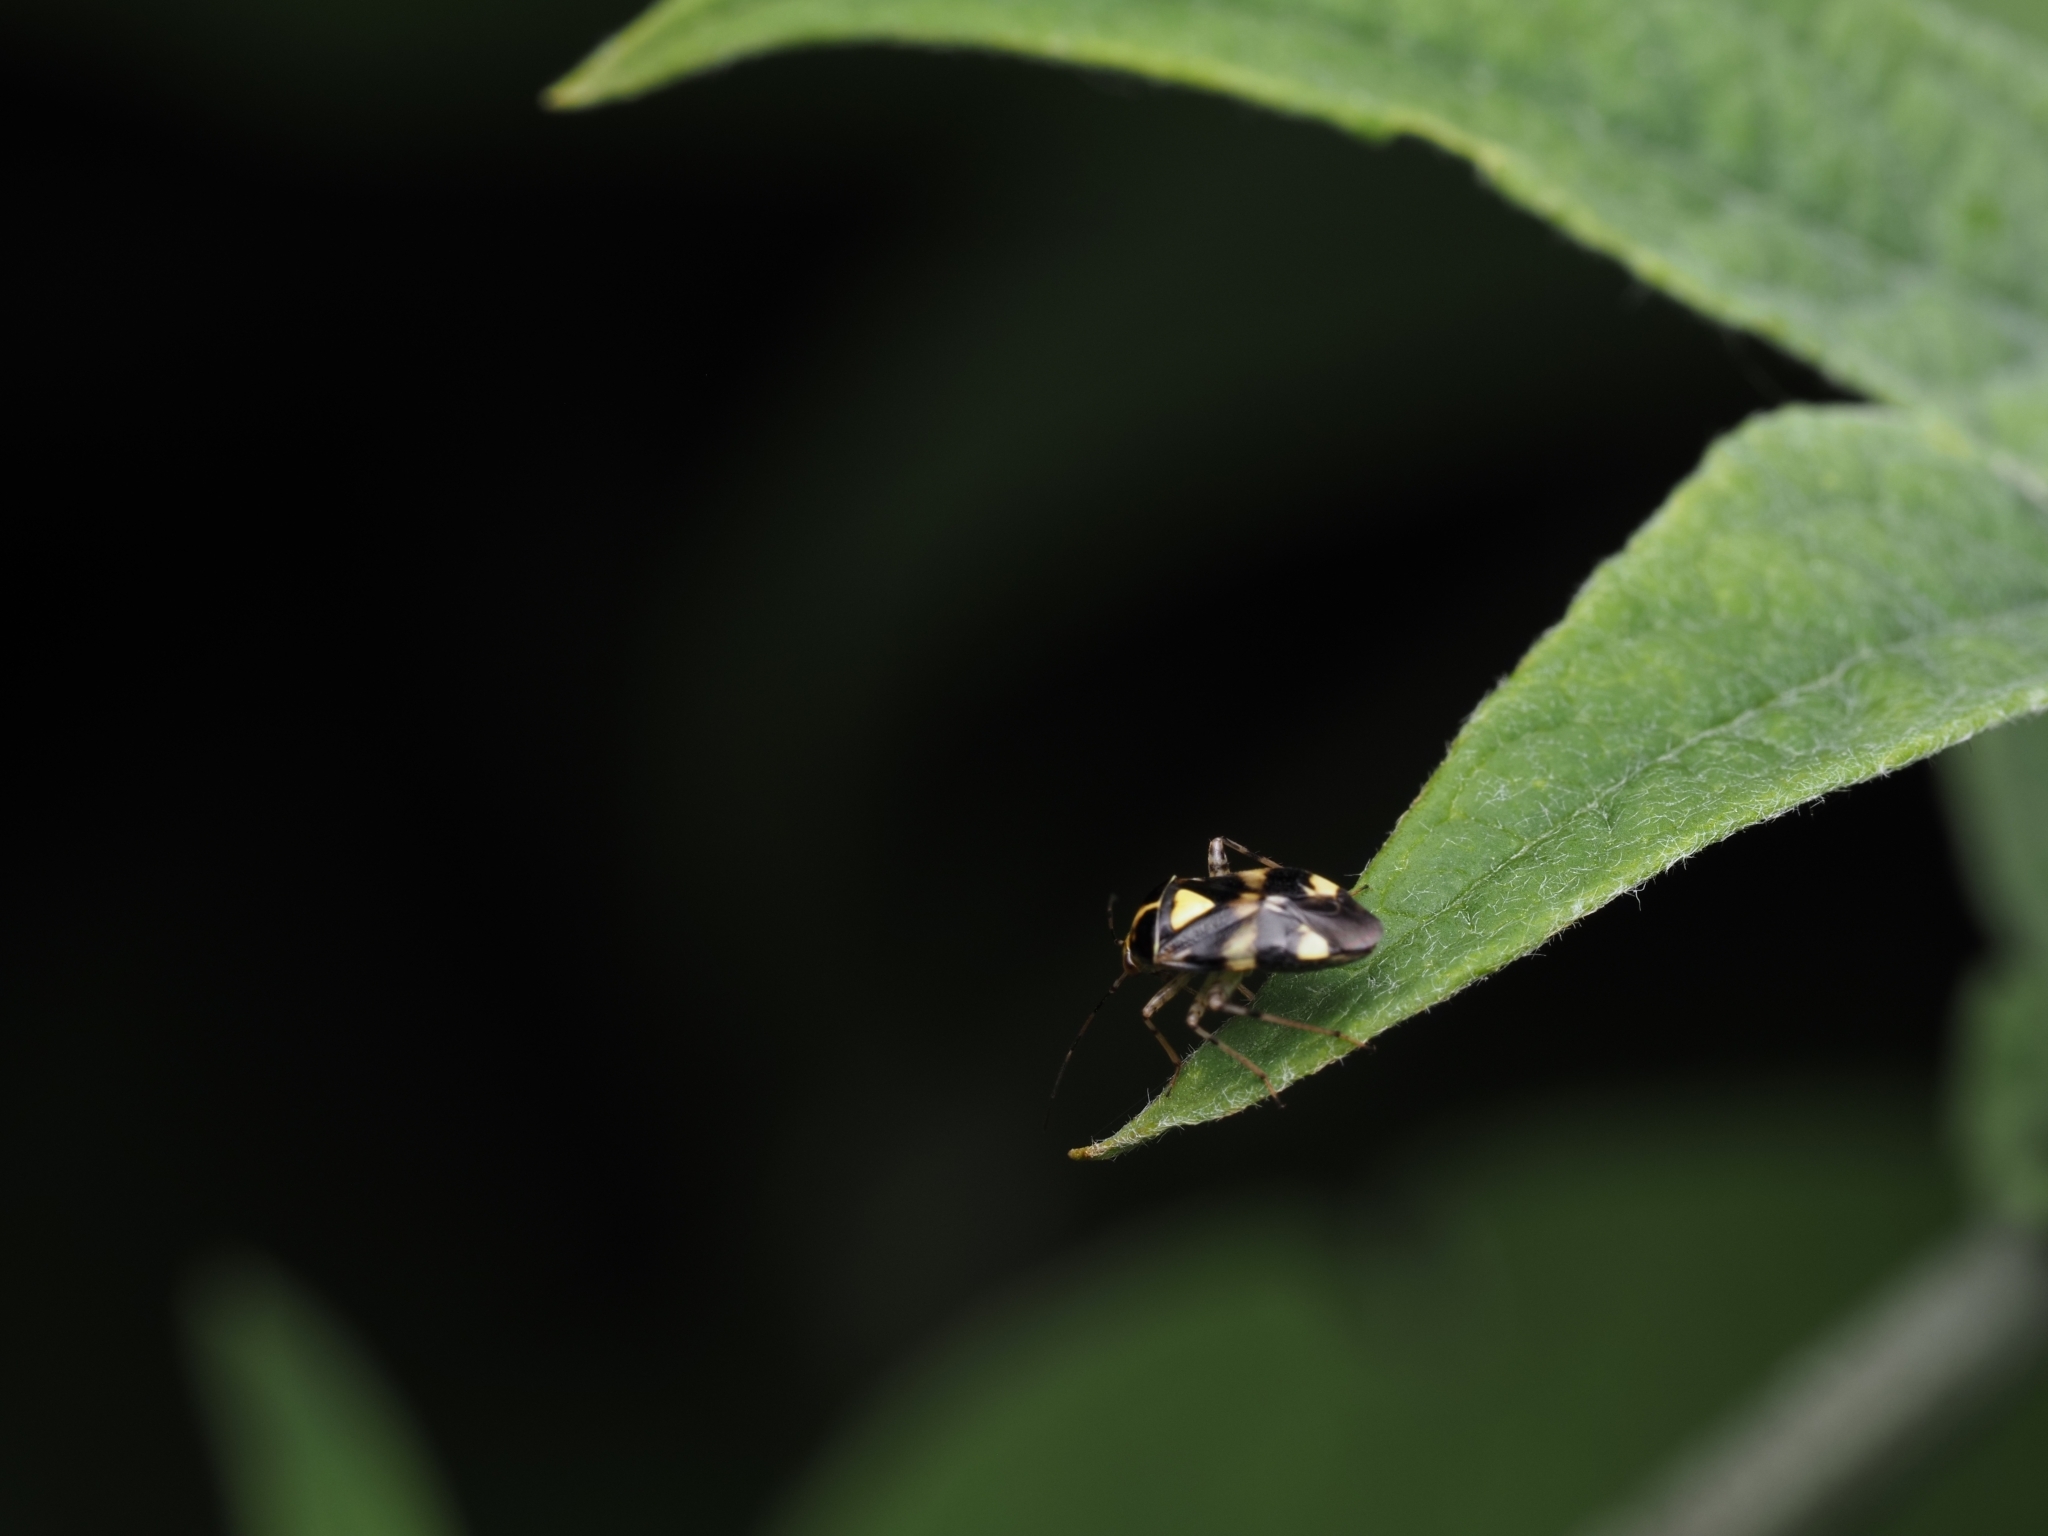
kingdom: Animalia
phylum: Arthropoda
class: Insecta
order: Hemiptera
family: Miridae
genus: Liocoris
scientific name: Liocoris tripustulatus
